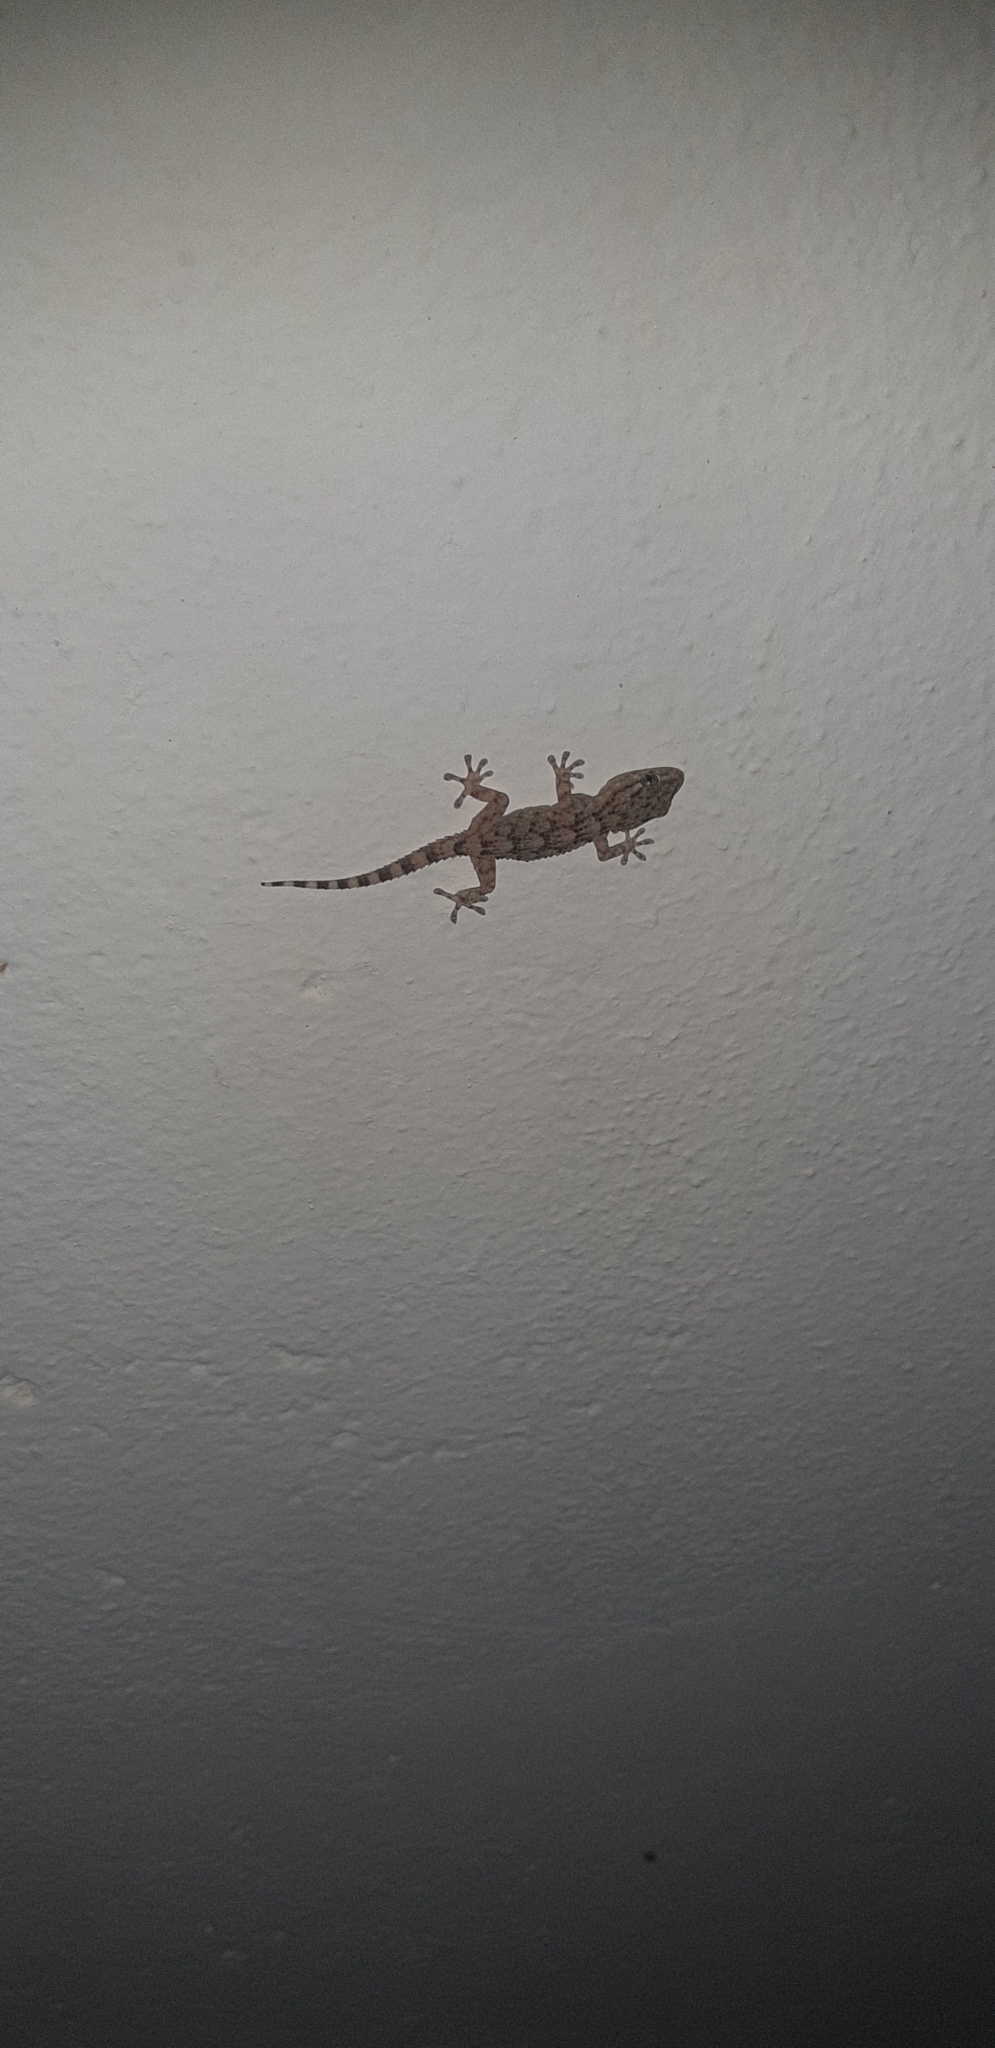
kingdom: Animalia
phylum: Chordata
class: Squamata
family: Phyllodactylidae
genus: Tarentola
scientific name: Tarentola mauritanica
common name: Moorish gecko
